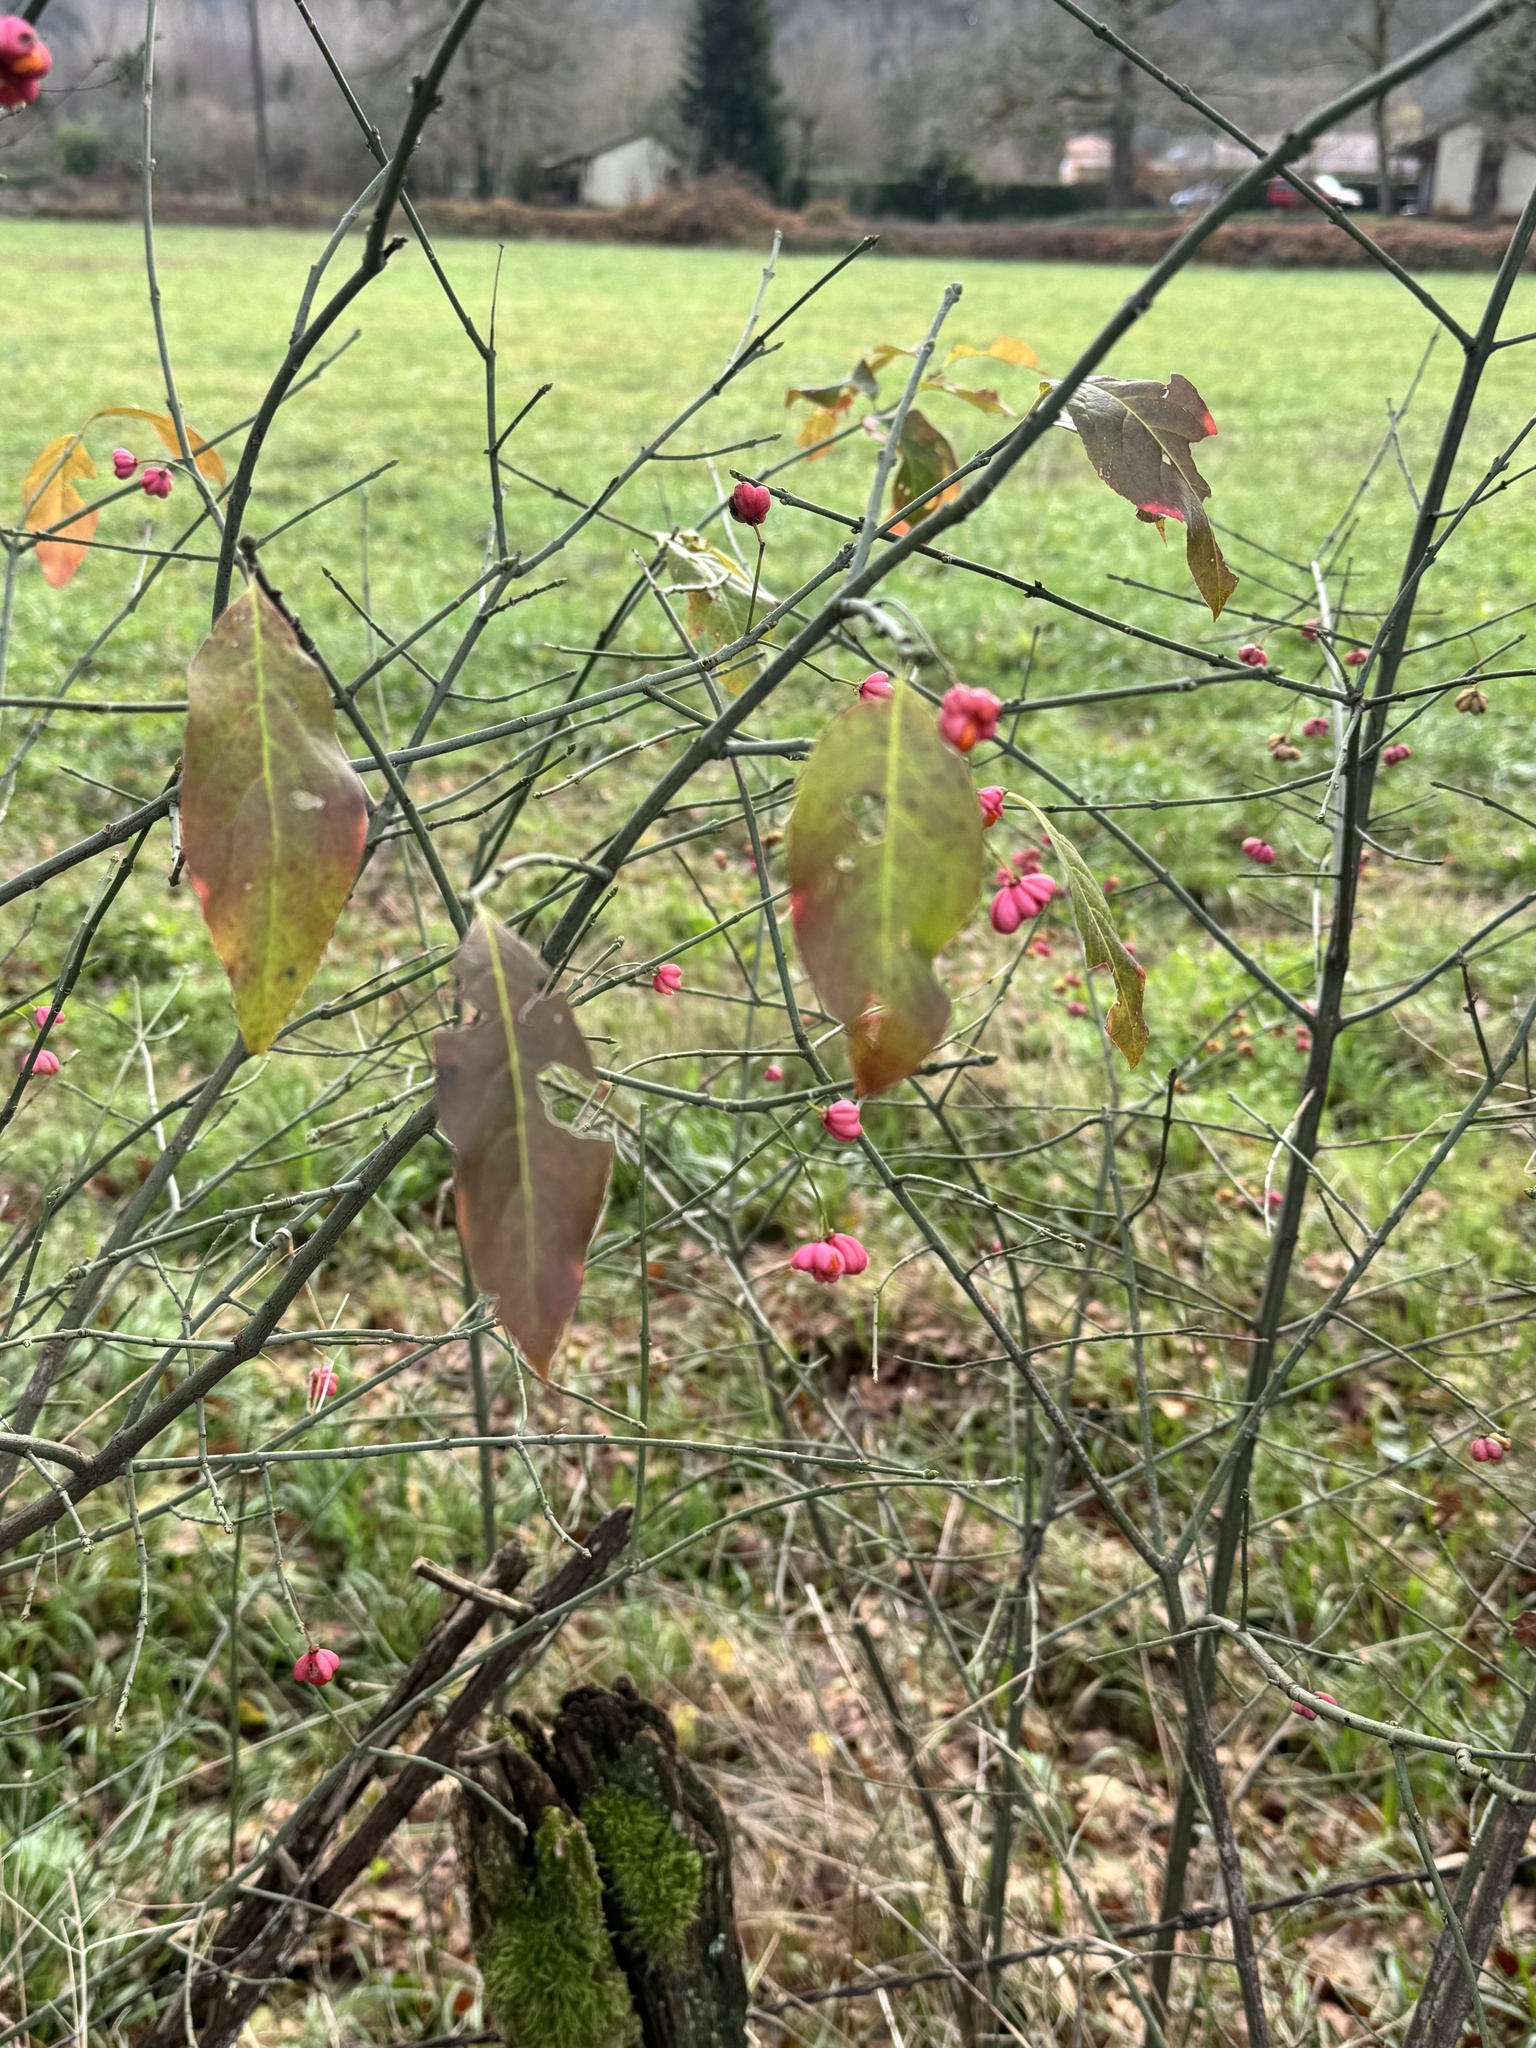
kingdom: Plantae
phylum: Tracheophyta
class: Magnoliopsida
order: Celastrales
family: Celastraceae
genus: Euonymus
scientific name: Euonymus europaeus
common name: Spindle
